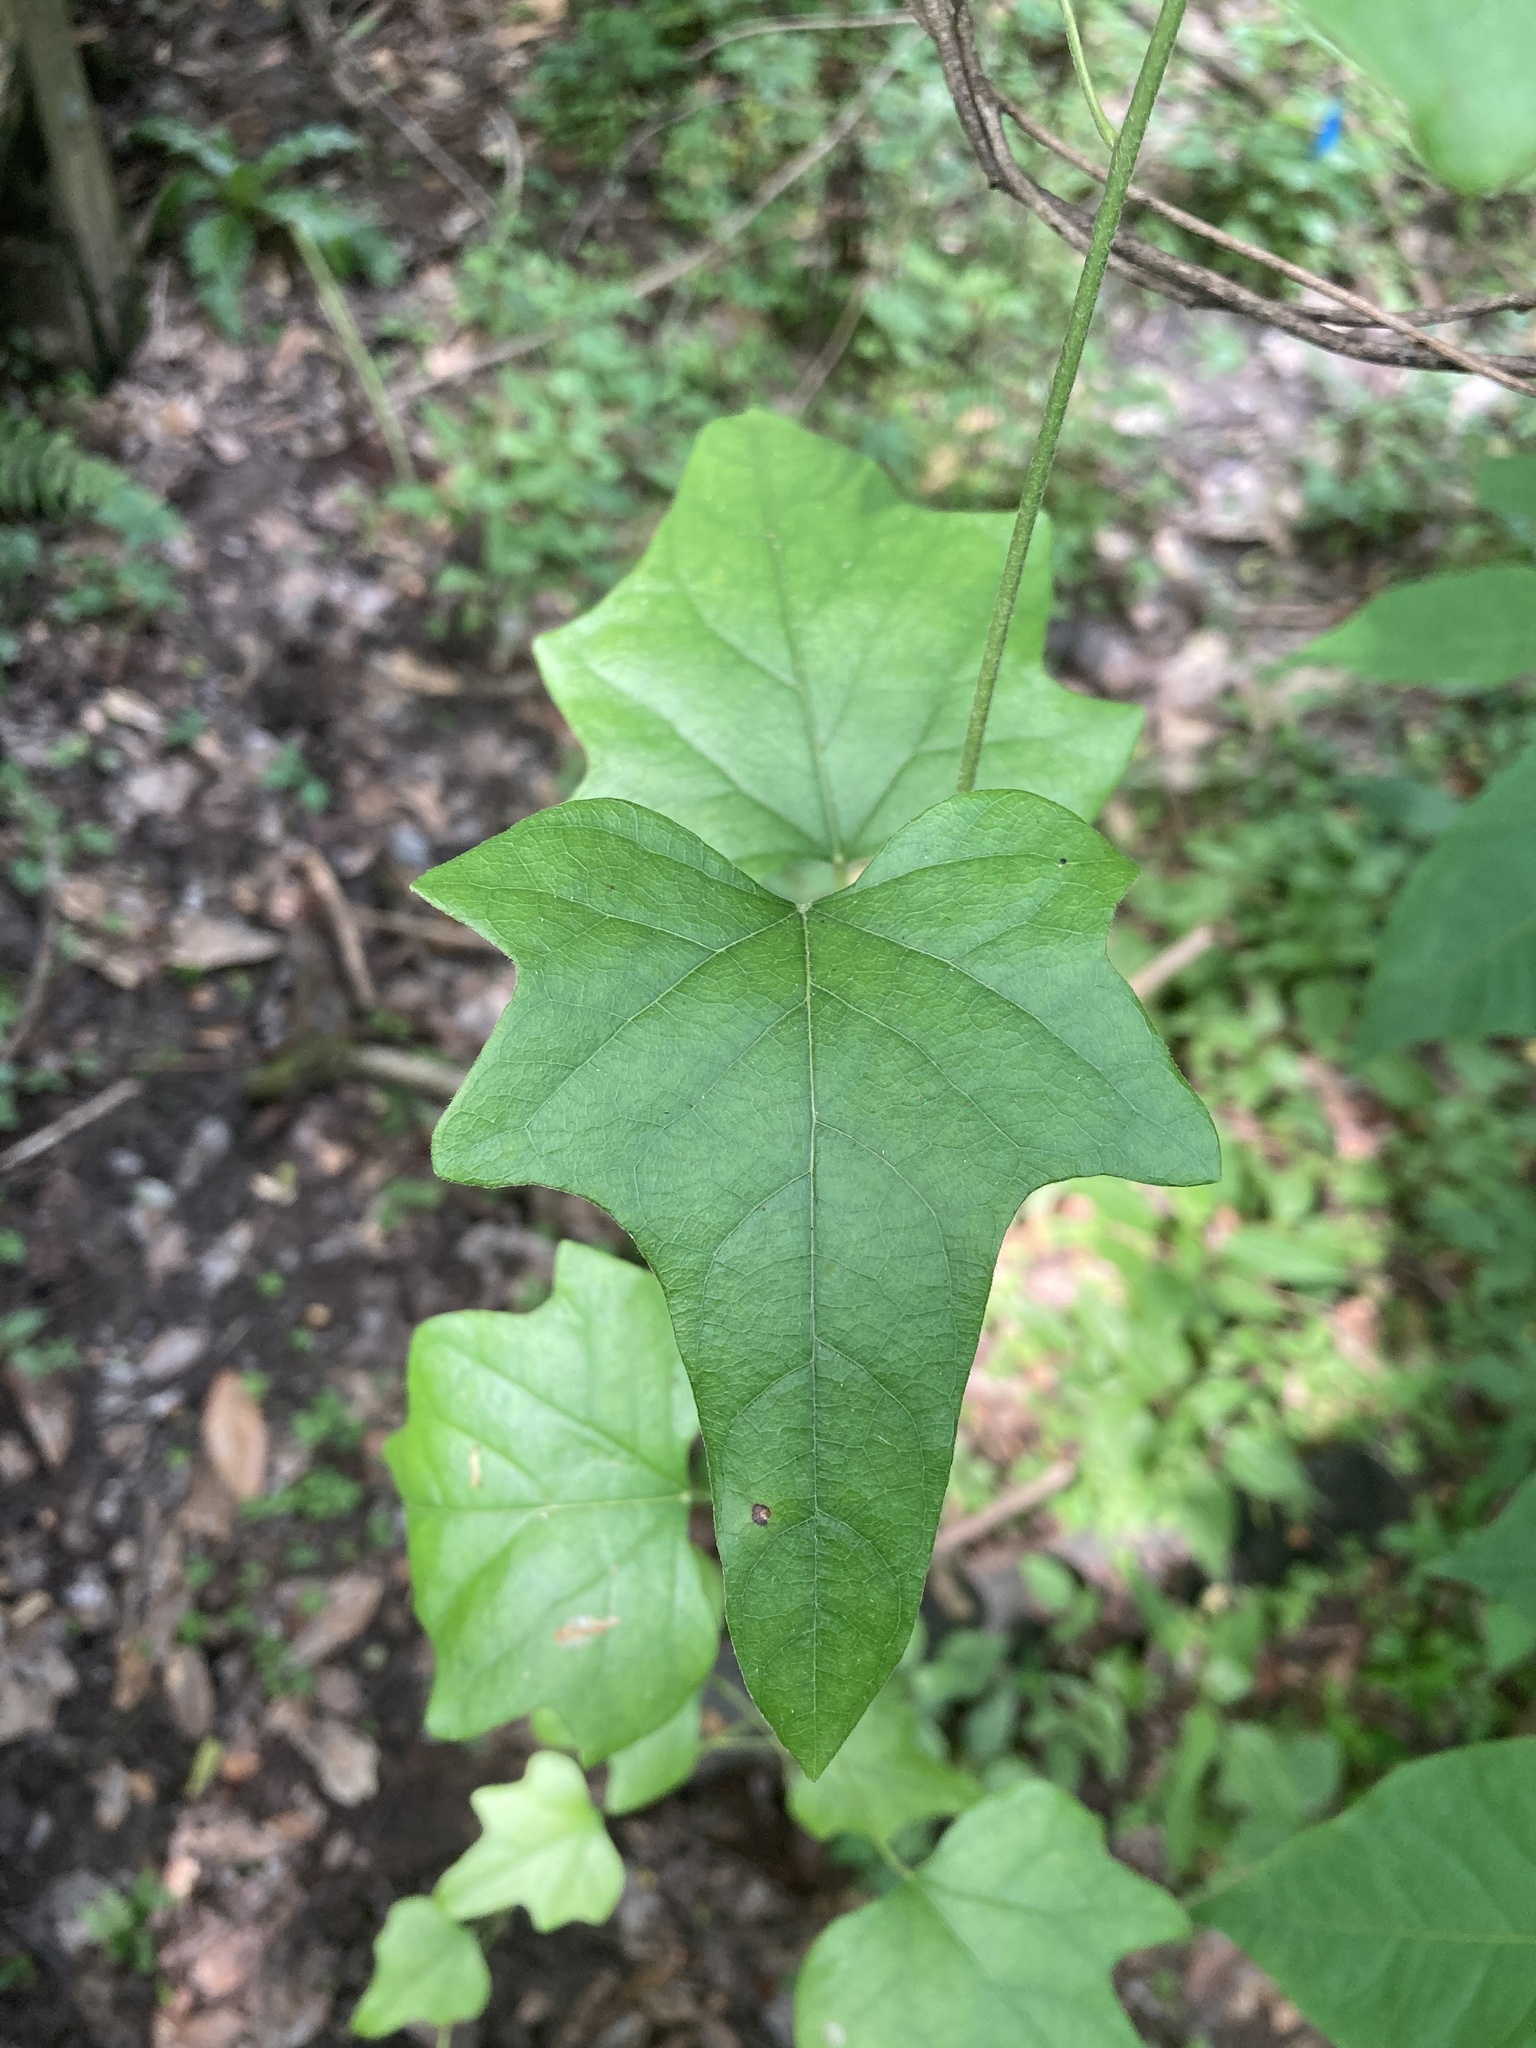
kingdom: Plantae
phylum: Tracheophyta
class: Magnoliopsida
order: Ranunculales
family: Menispermaceae
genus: Cocculus
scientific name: Cocculus carolinus
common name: Carolina moonseed
